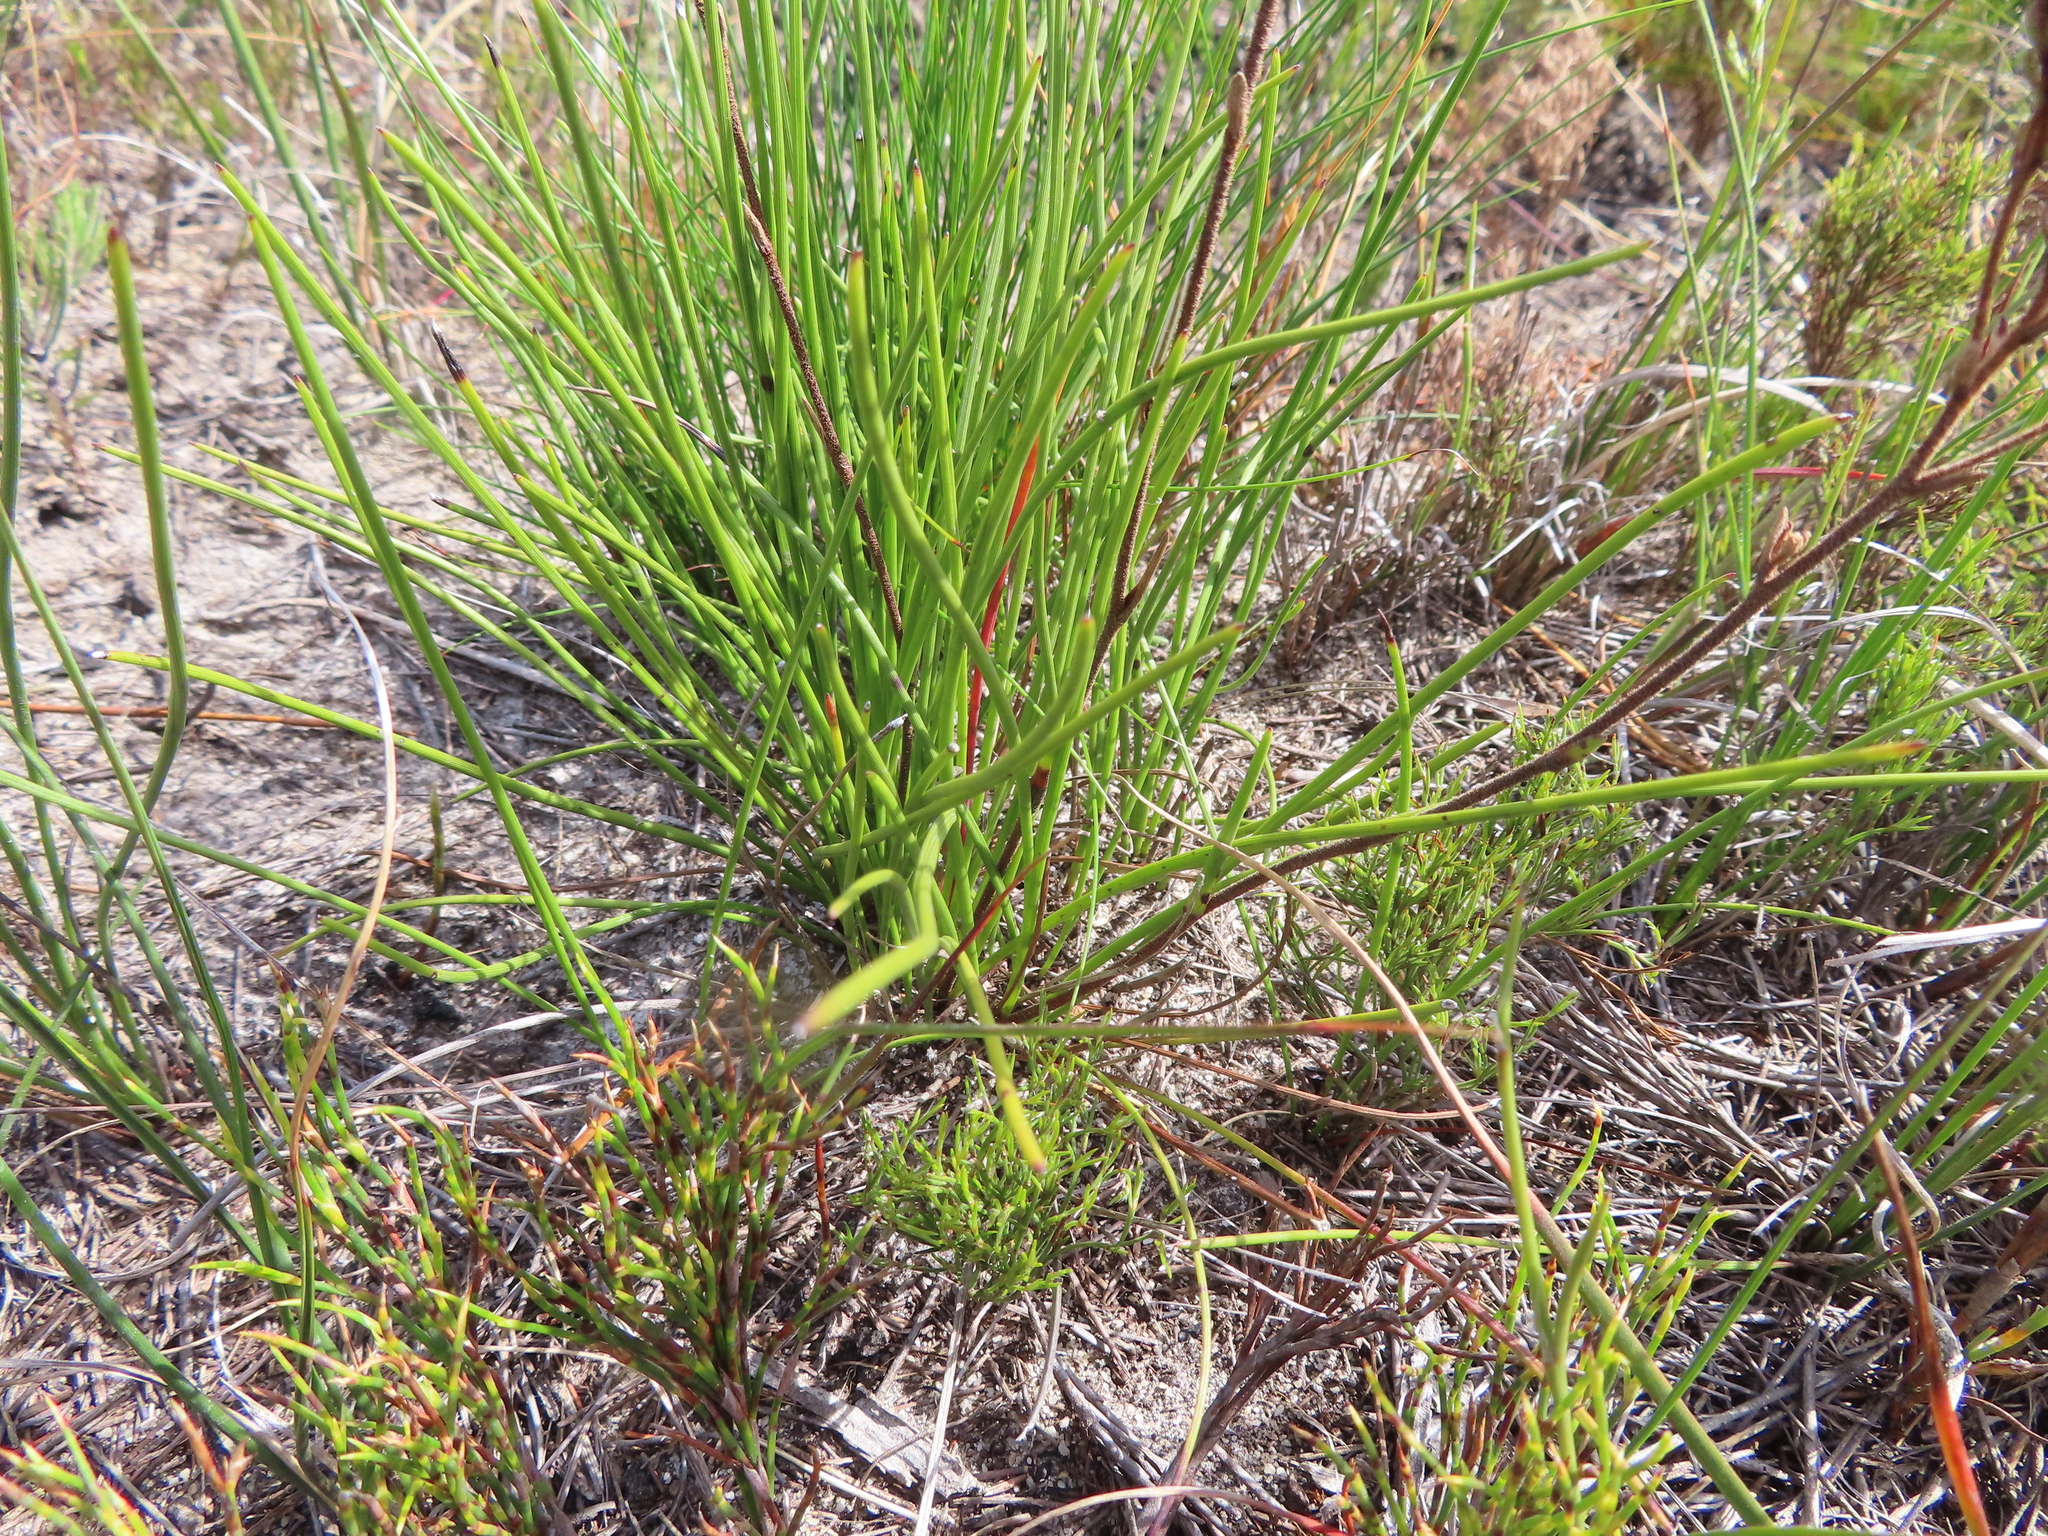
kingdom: Plantae
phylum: Tracheophyta
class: Magnoliopsida
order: Asterales
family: Asteraceae
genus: Corymbium
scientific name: Corymbium glabrum
